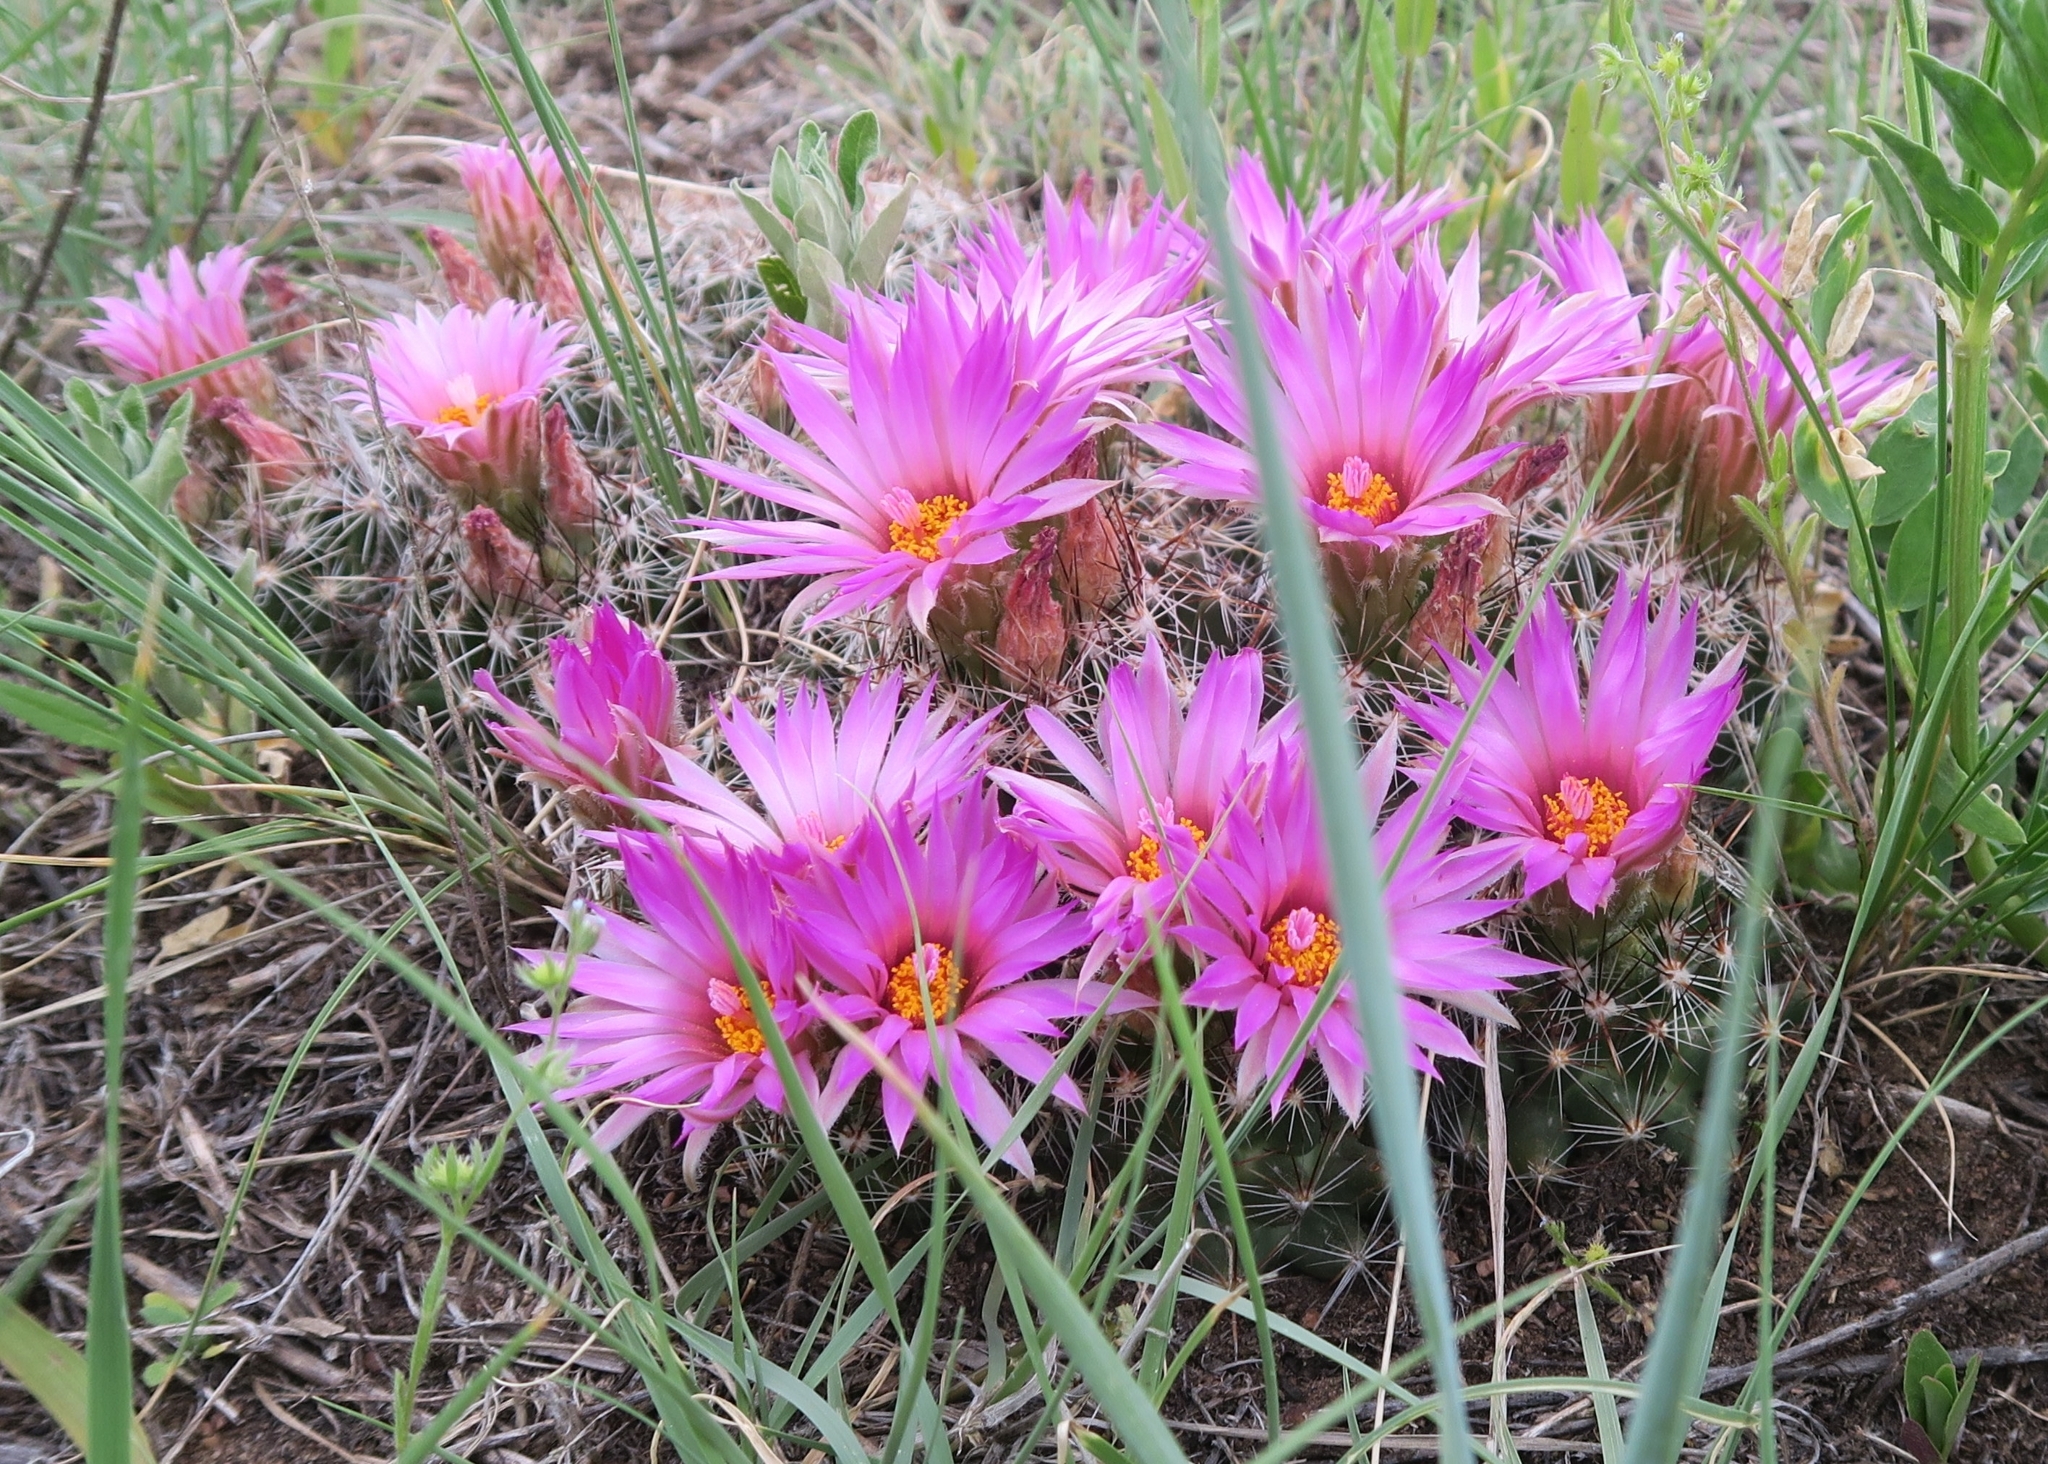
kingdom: Plantae
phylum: Tracheophyta
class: Magnoliopsida
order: Caryophyllales
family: Cactaceae
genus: Pelecyphora
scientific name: Pelecyphora vivipara
